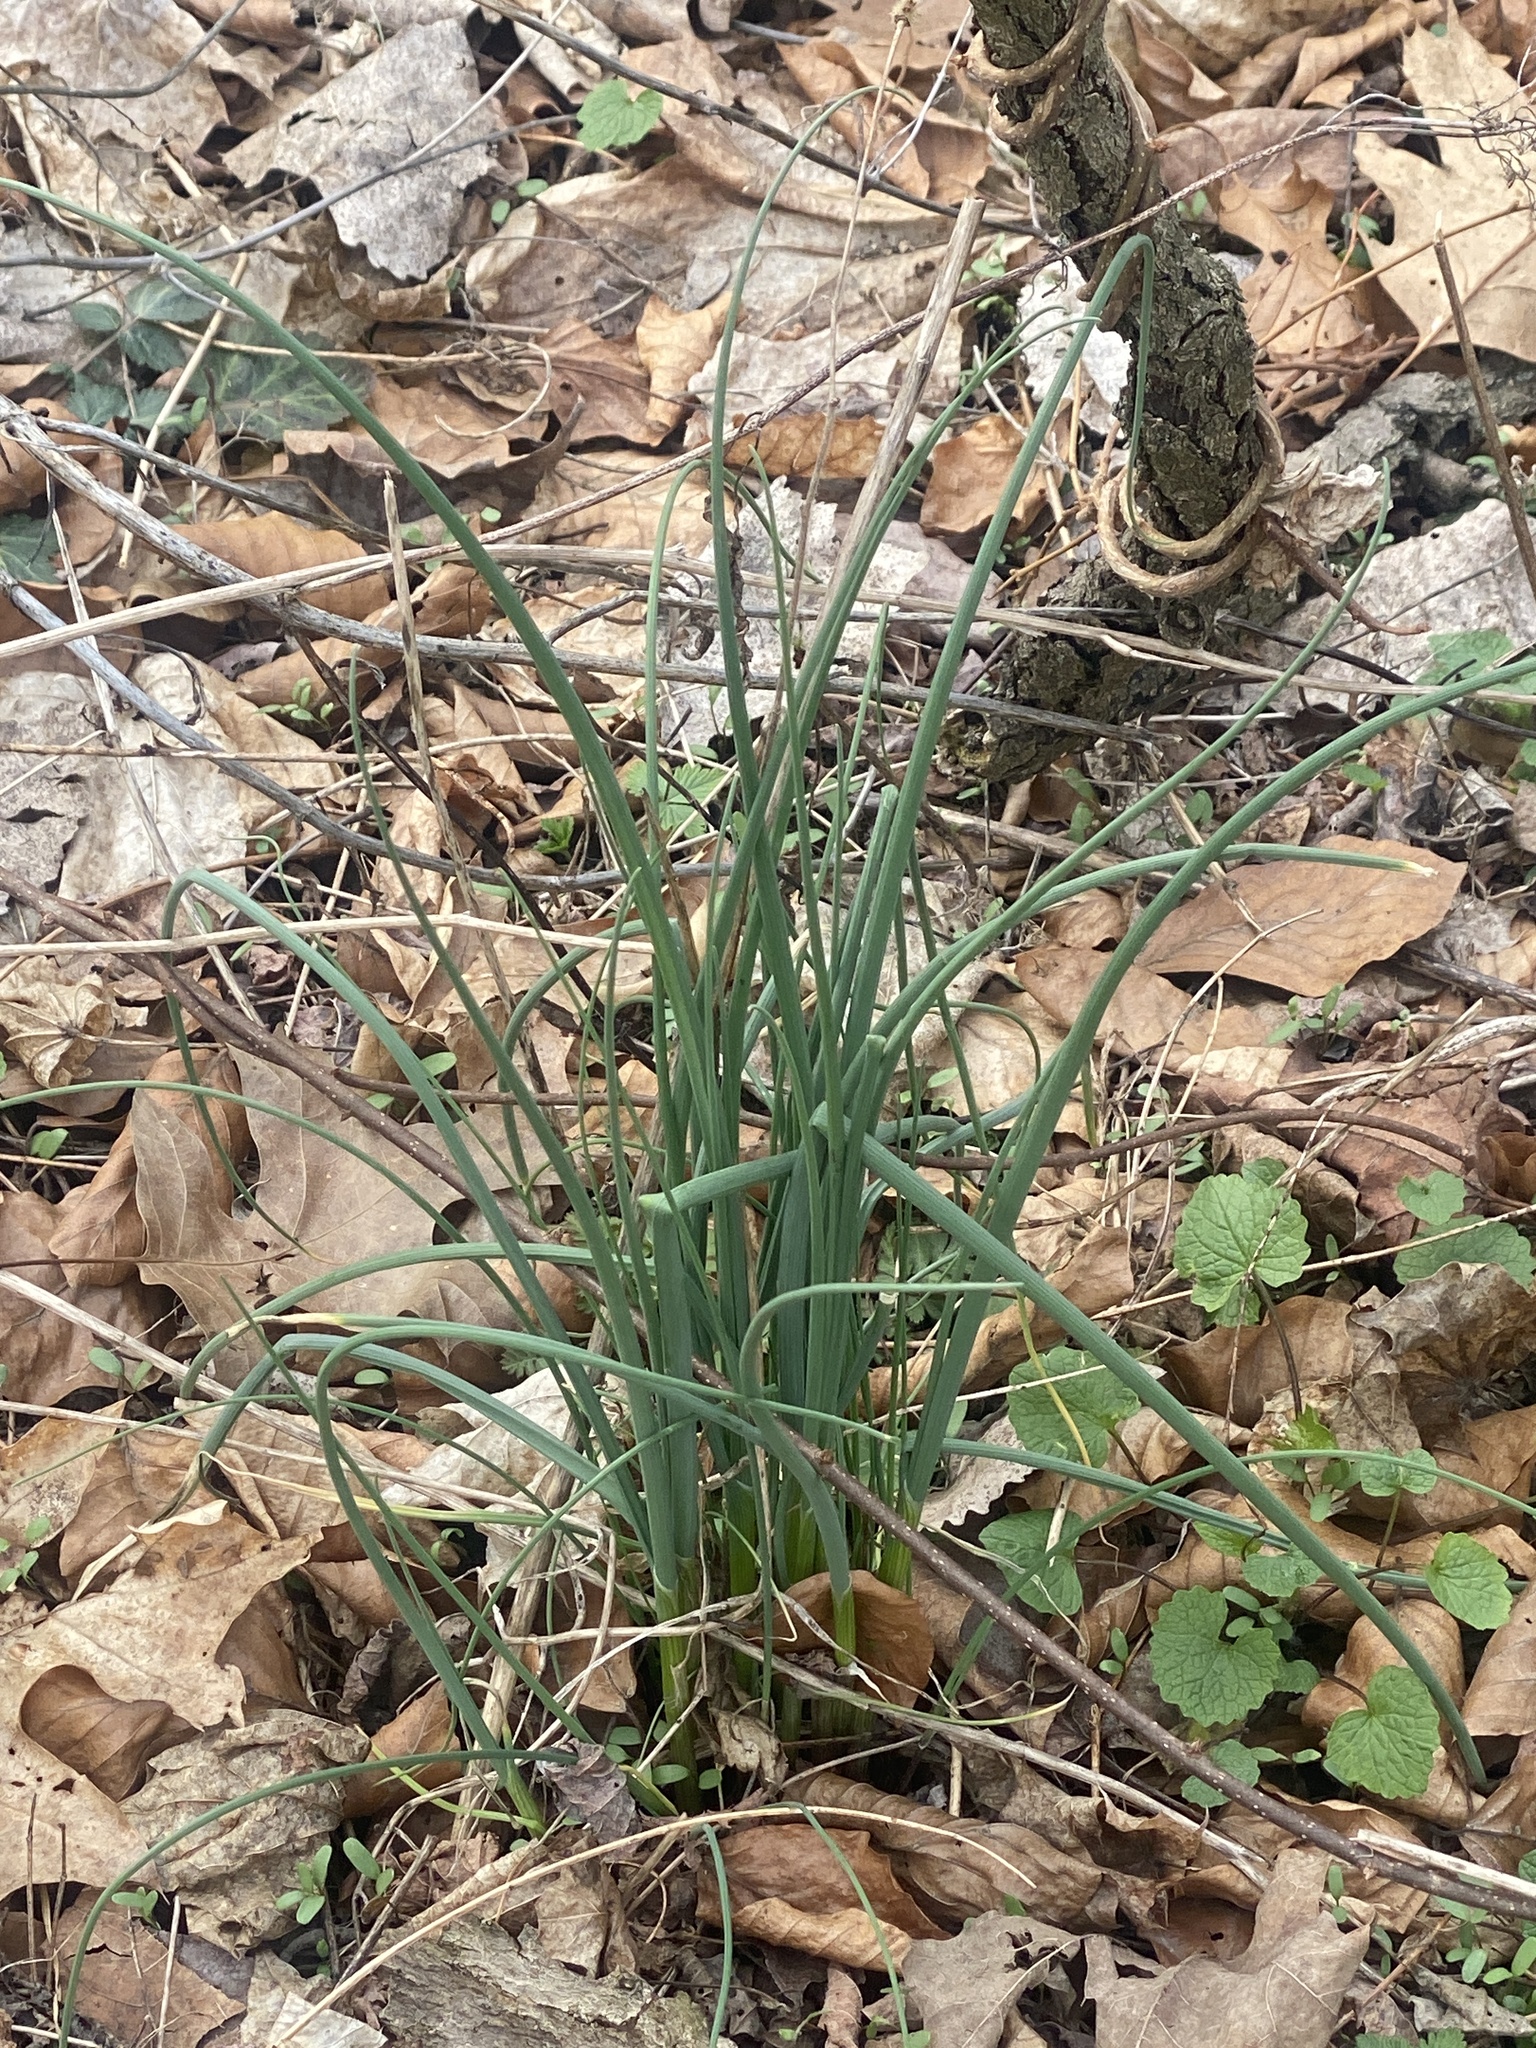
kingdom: Plantae
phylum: Tracheophyta
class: Liliopsida
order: Asparagales
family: Amaryllidaceae
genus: Allium
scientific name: Allium vineale
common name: Crow garlic
